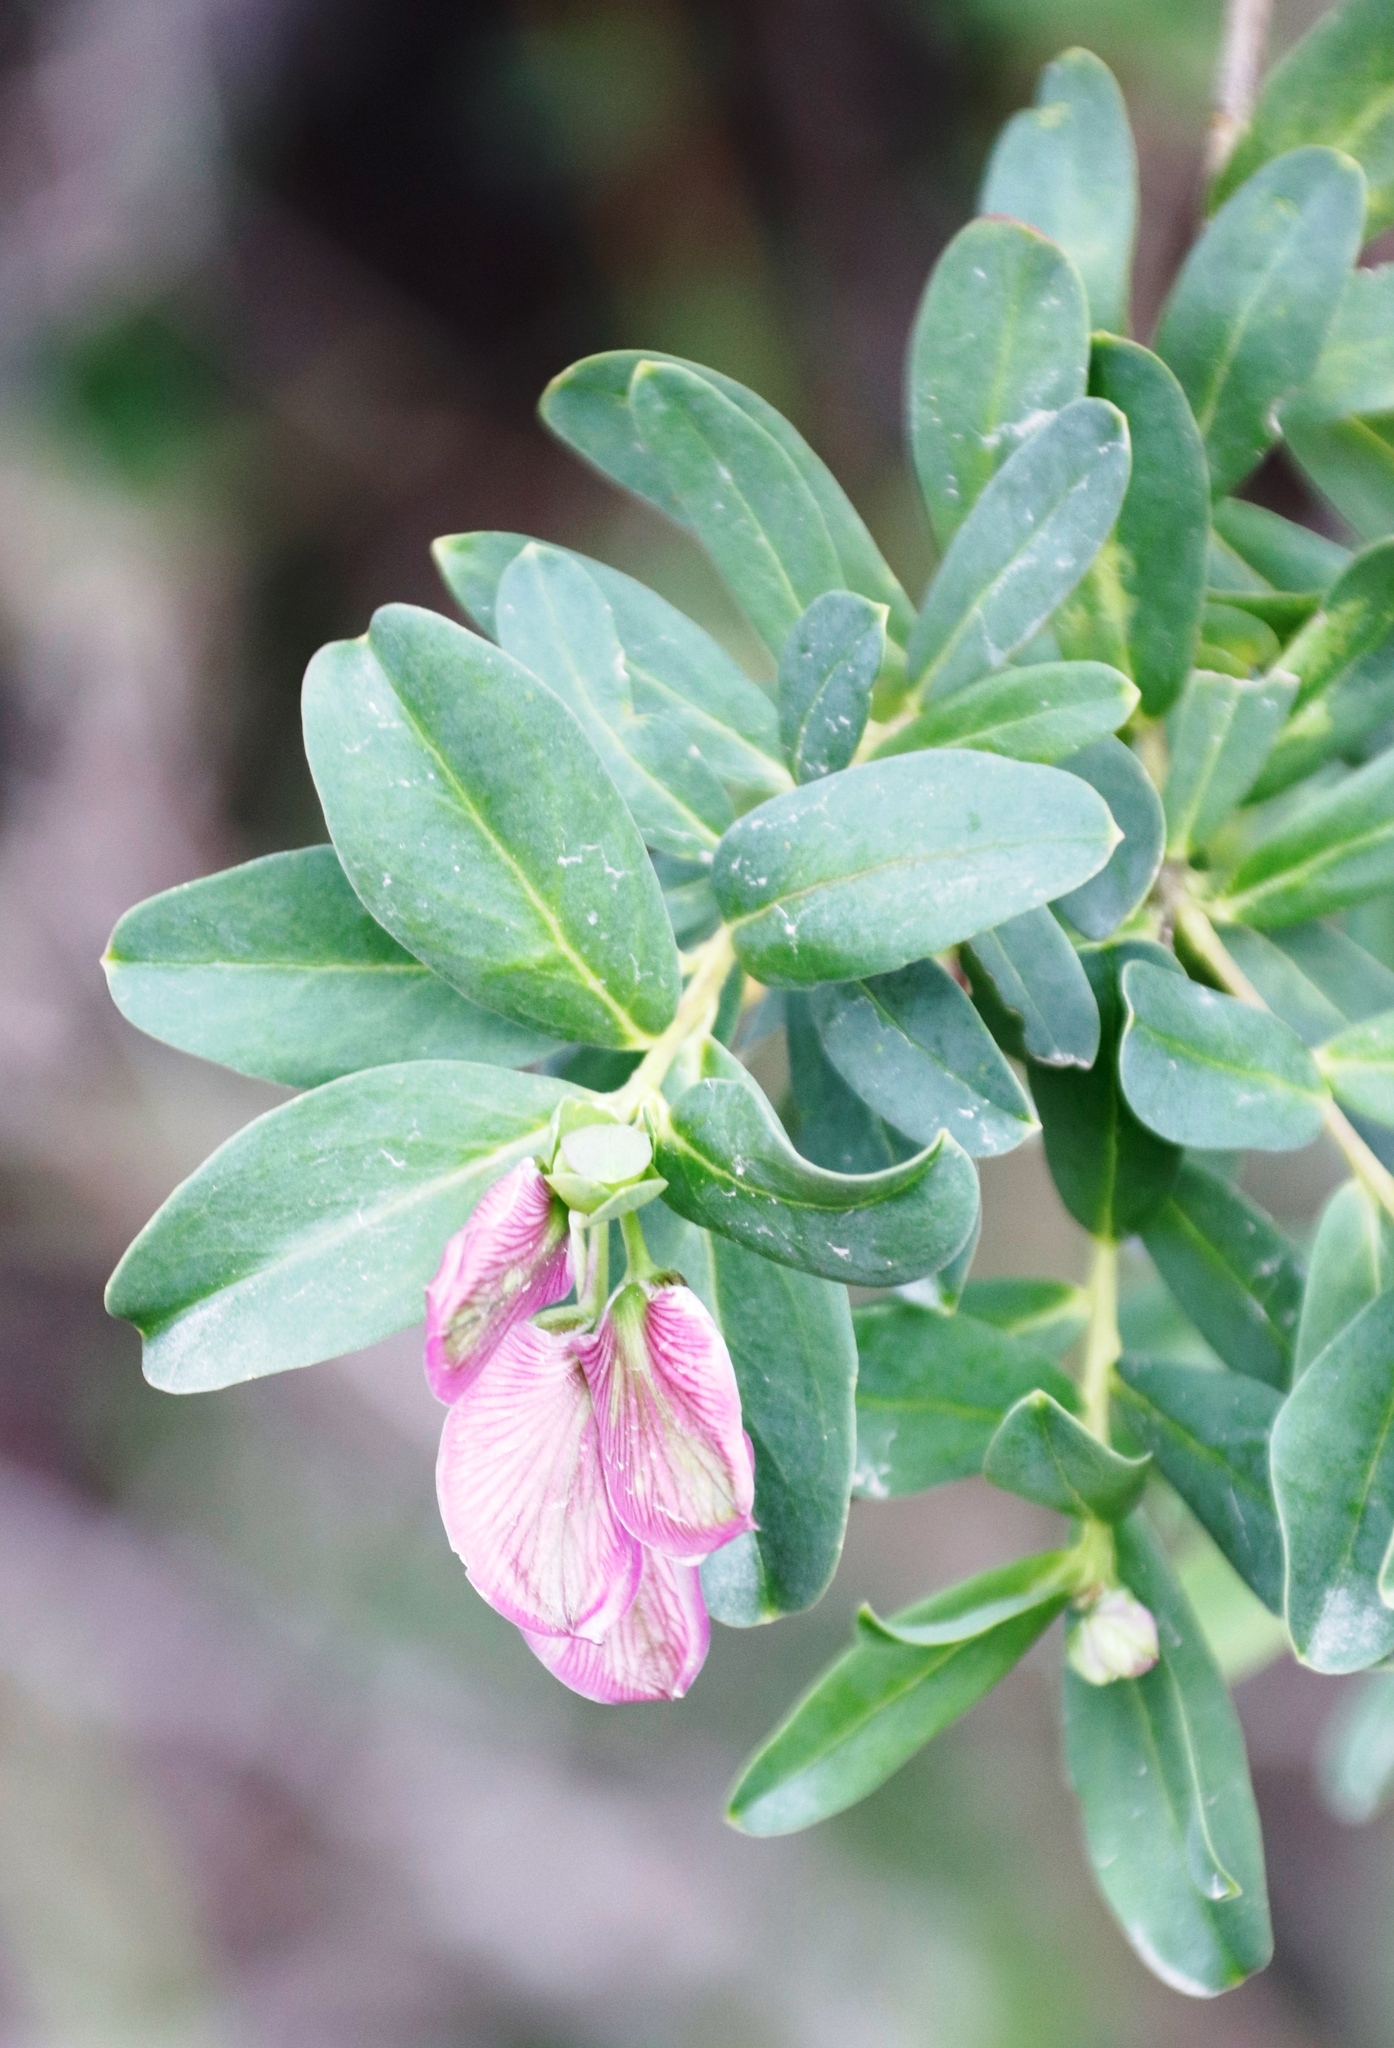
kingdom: Plantae
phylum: Tracheophyta
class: Magnoliopsida
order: Fabales
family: Polygalaceae
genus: Polygala
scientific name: Polygala myrtifolia
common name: Myrtle-leaf milkwort
